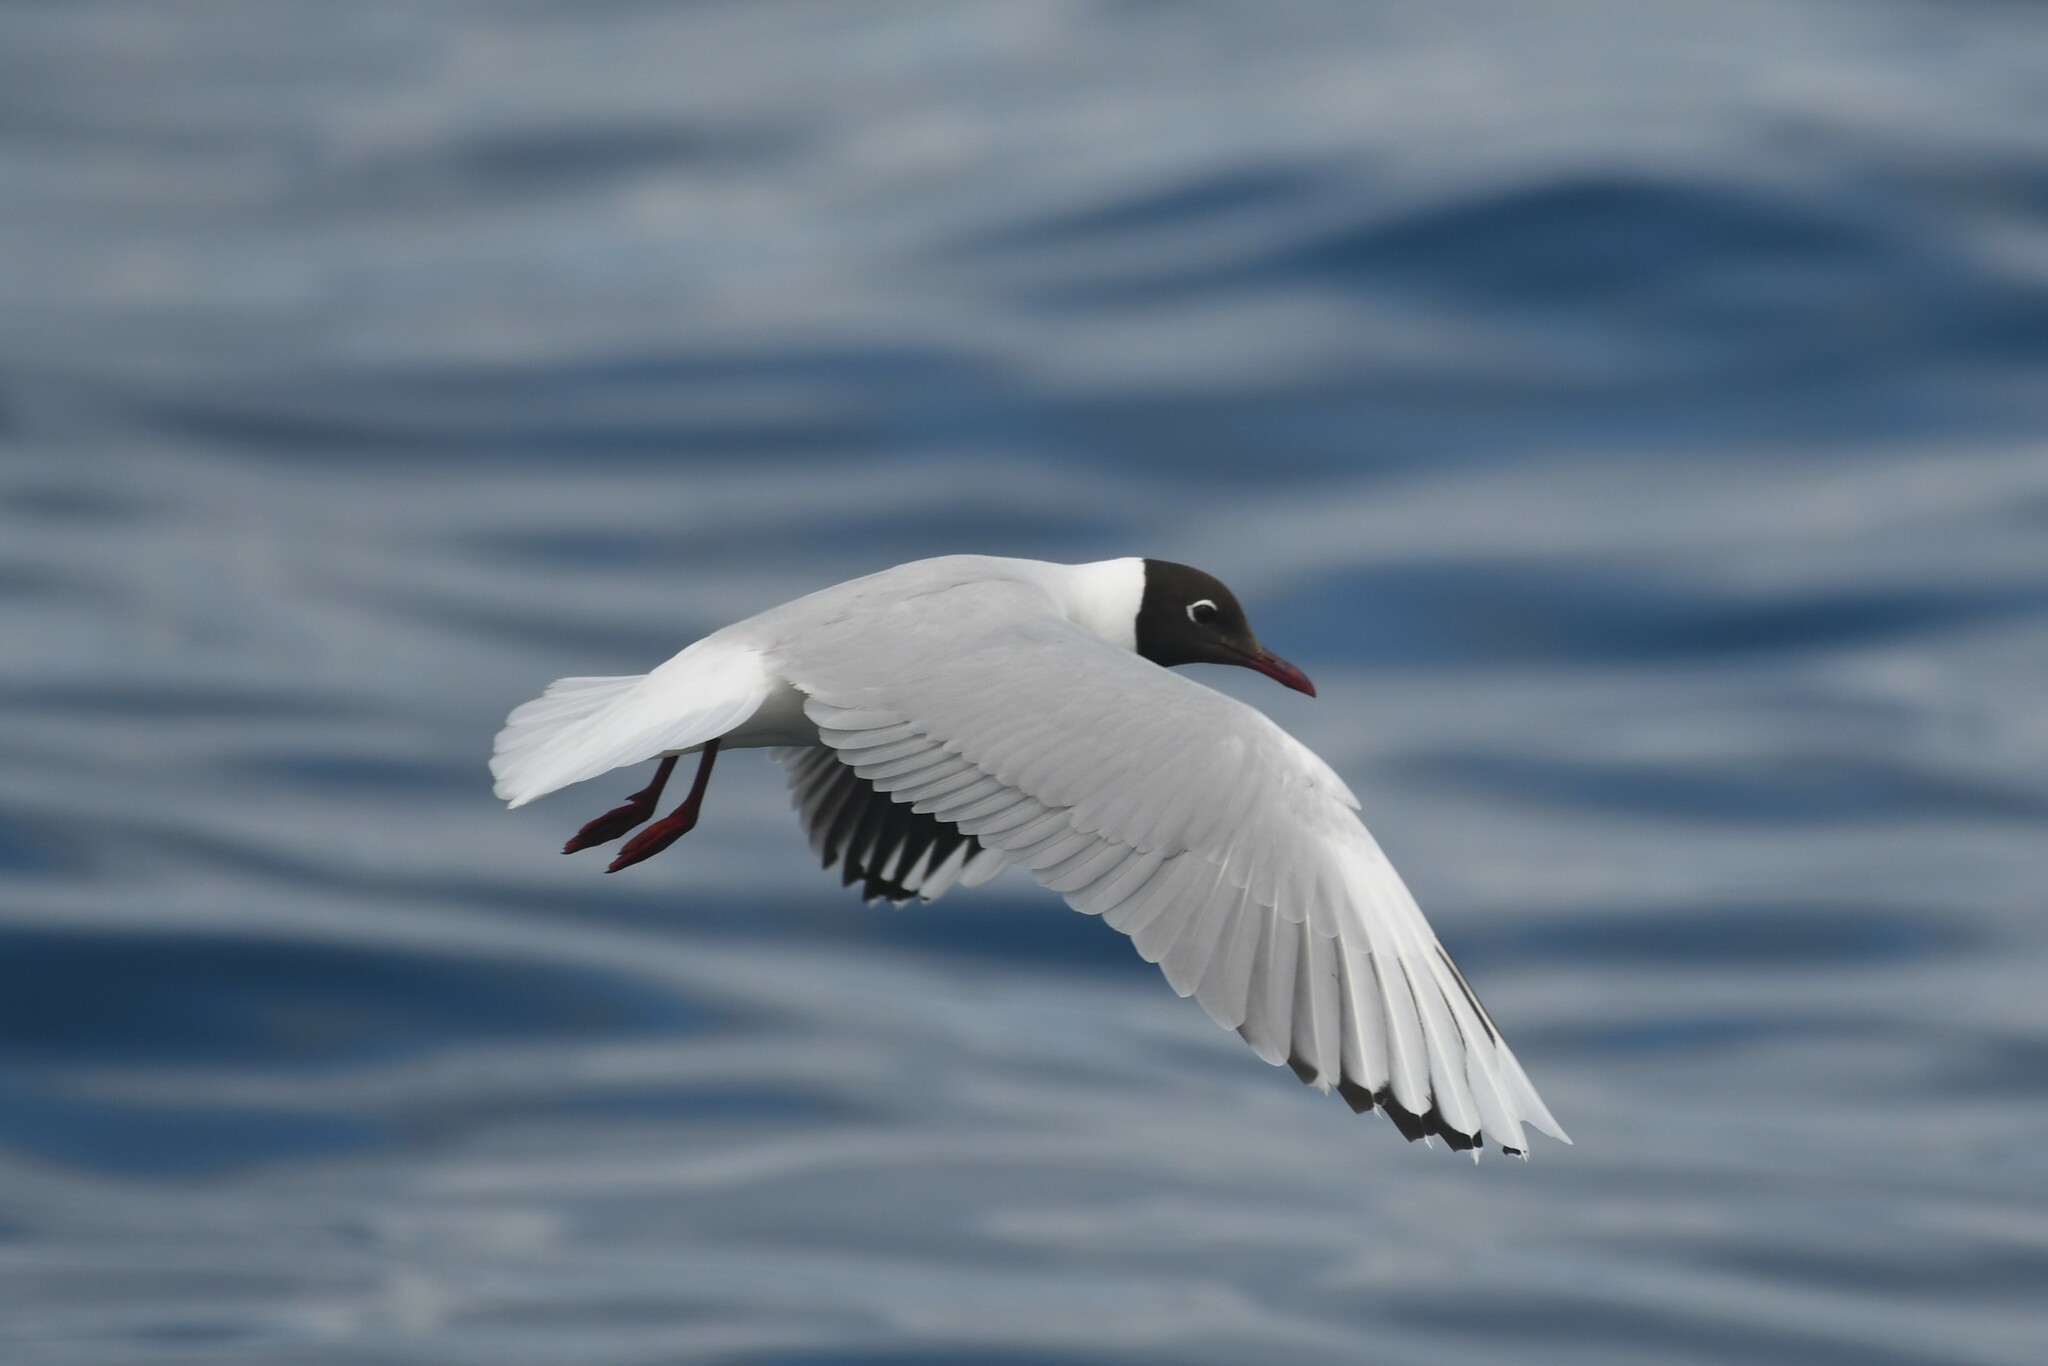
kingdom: Animalia
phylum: Chordata
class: Aves
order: Charadriiformes
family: Laridae
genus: Chroicocephalus
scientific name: Chroicocephalus maculipennis
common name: Brown-hooded gull
